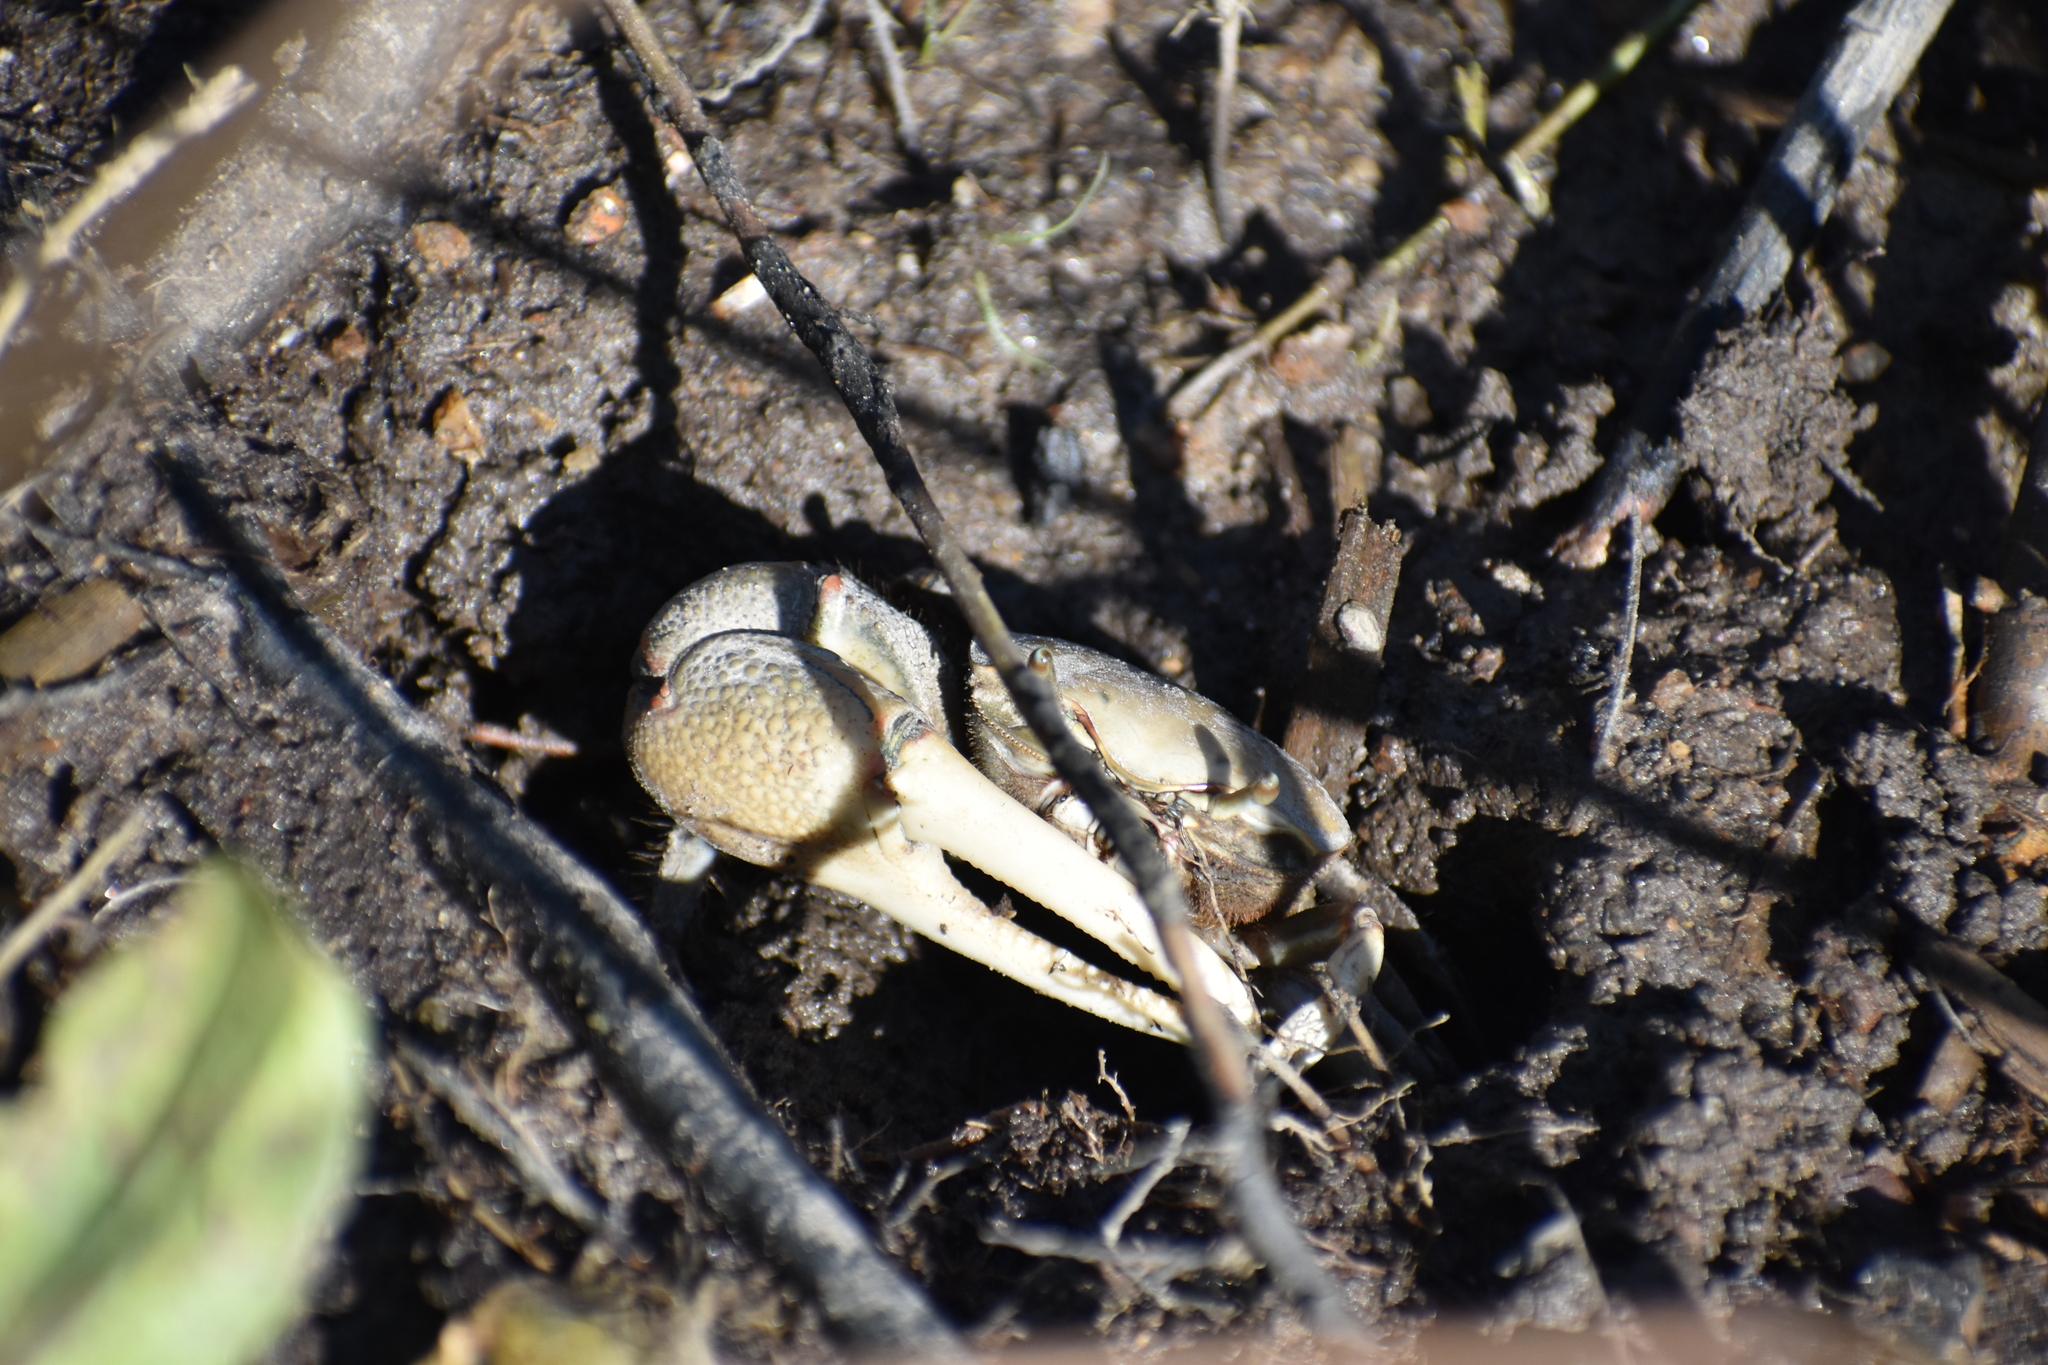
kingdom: Animalia
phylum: Arthropoda
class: Malacostraca
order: Decapoda
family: Ocypodidae
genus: Minuca
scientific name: Minuca minax
